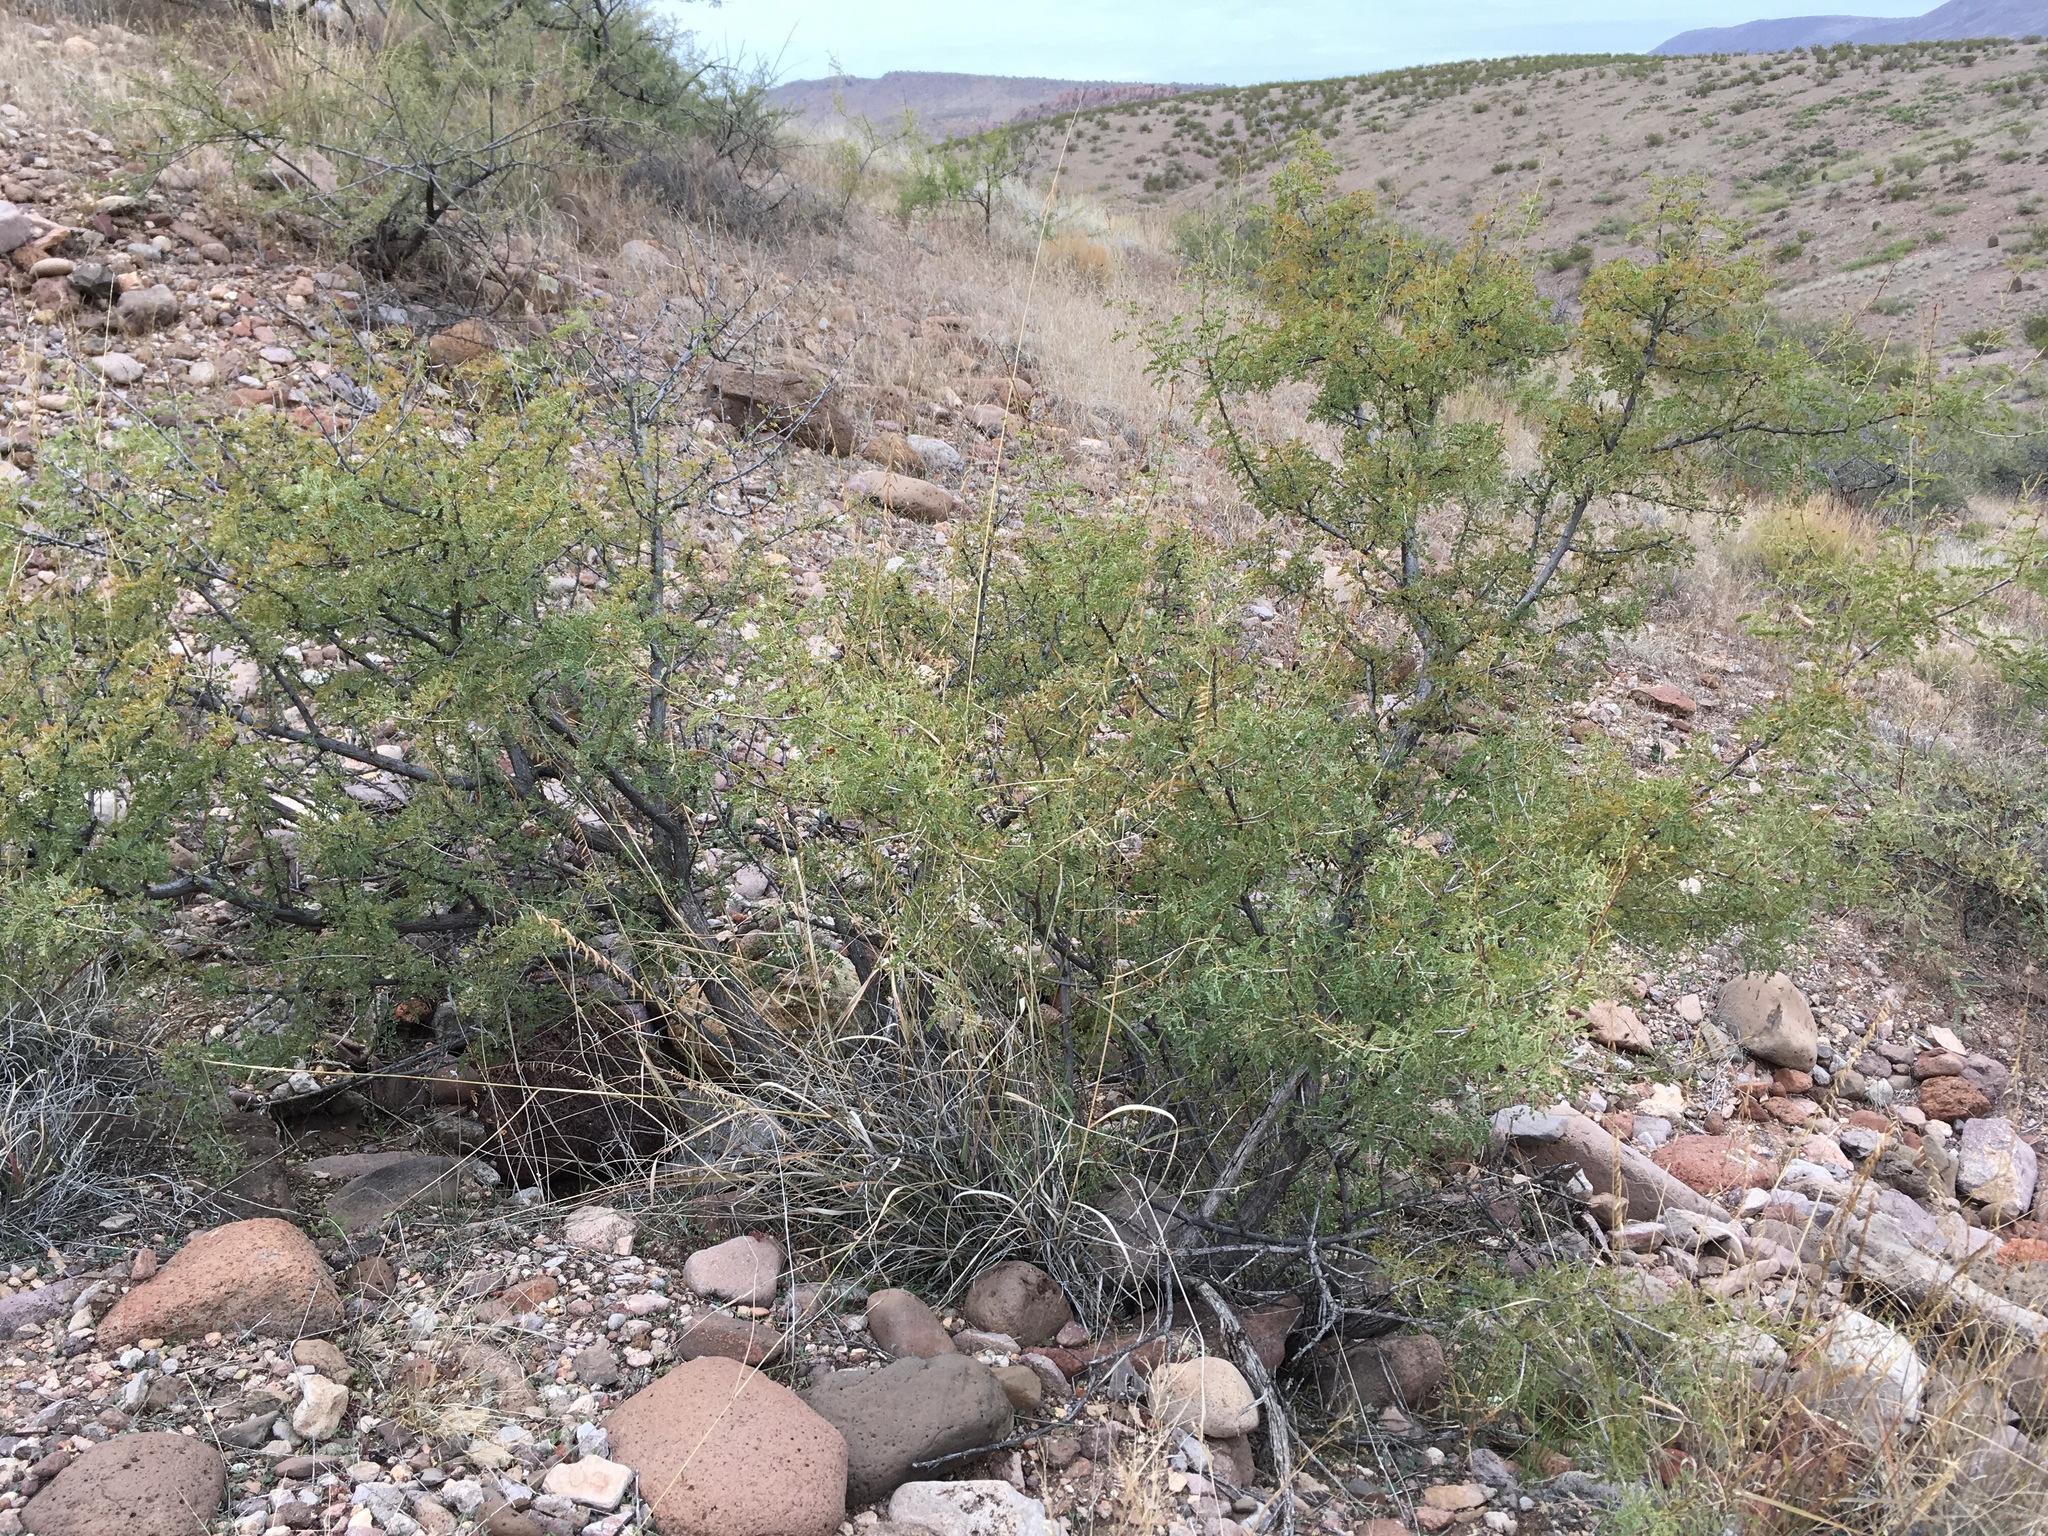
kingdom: Plantae
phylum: Tracheophyta
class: Magnoliopsida
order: Fabales
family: Fabaceae
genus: Senegalia
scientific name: Senegalia greggii
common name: Texas-mimosa
